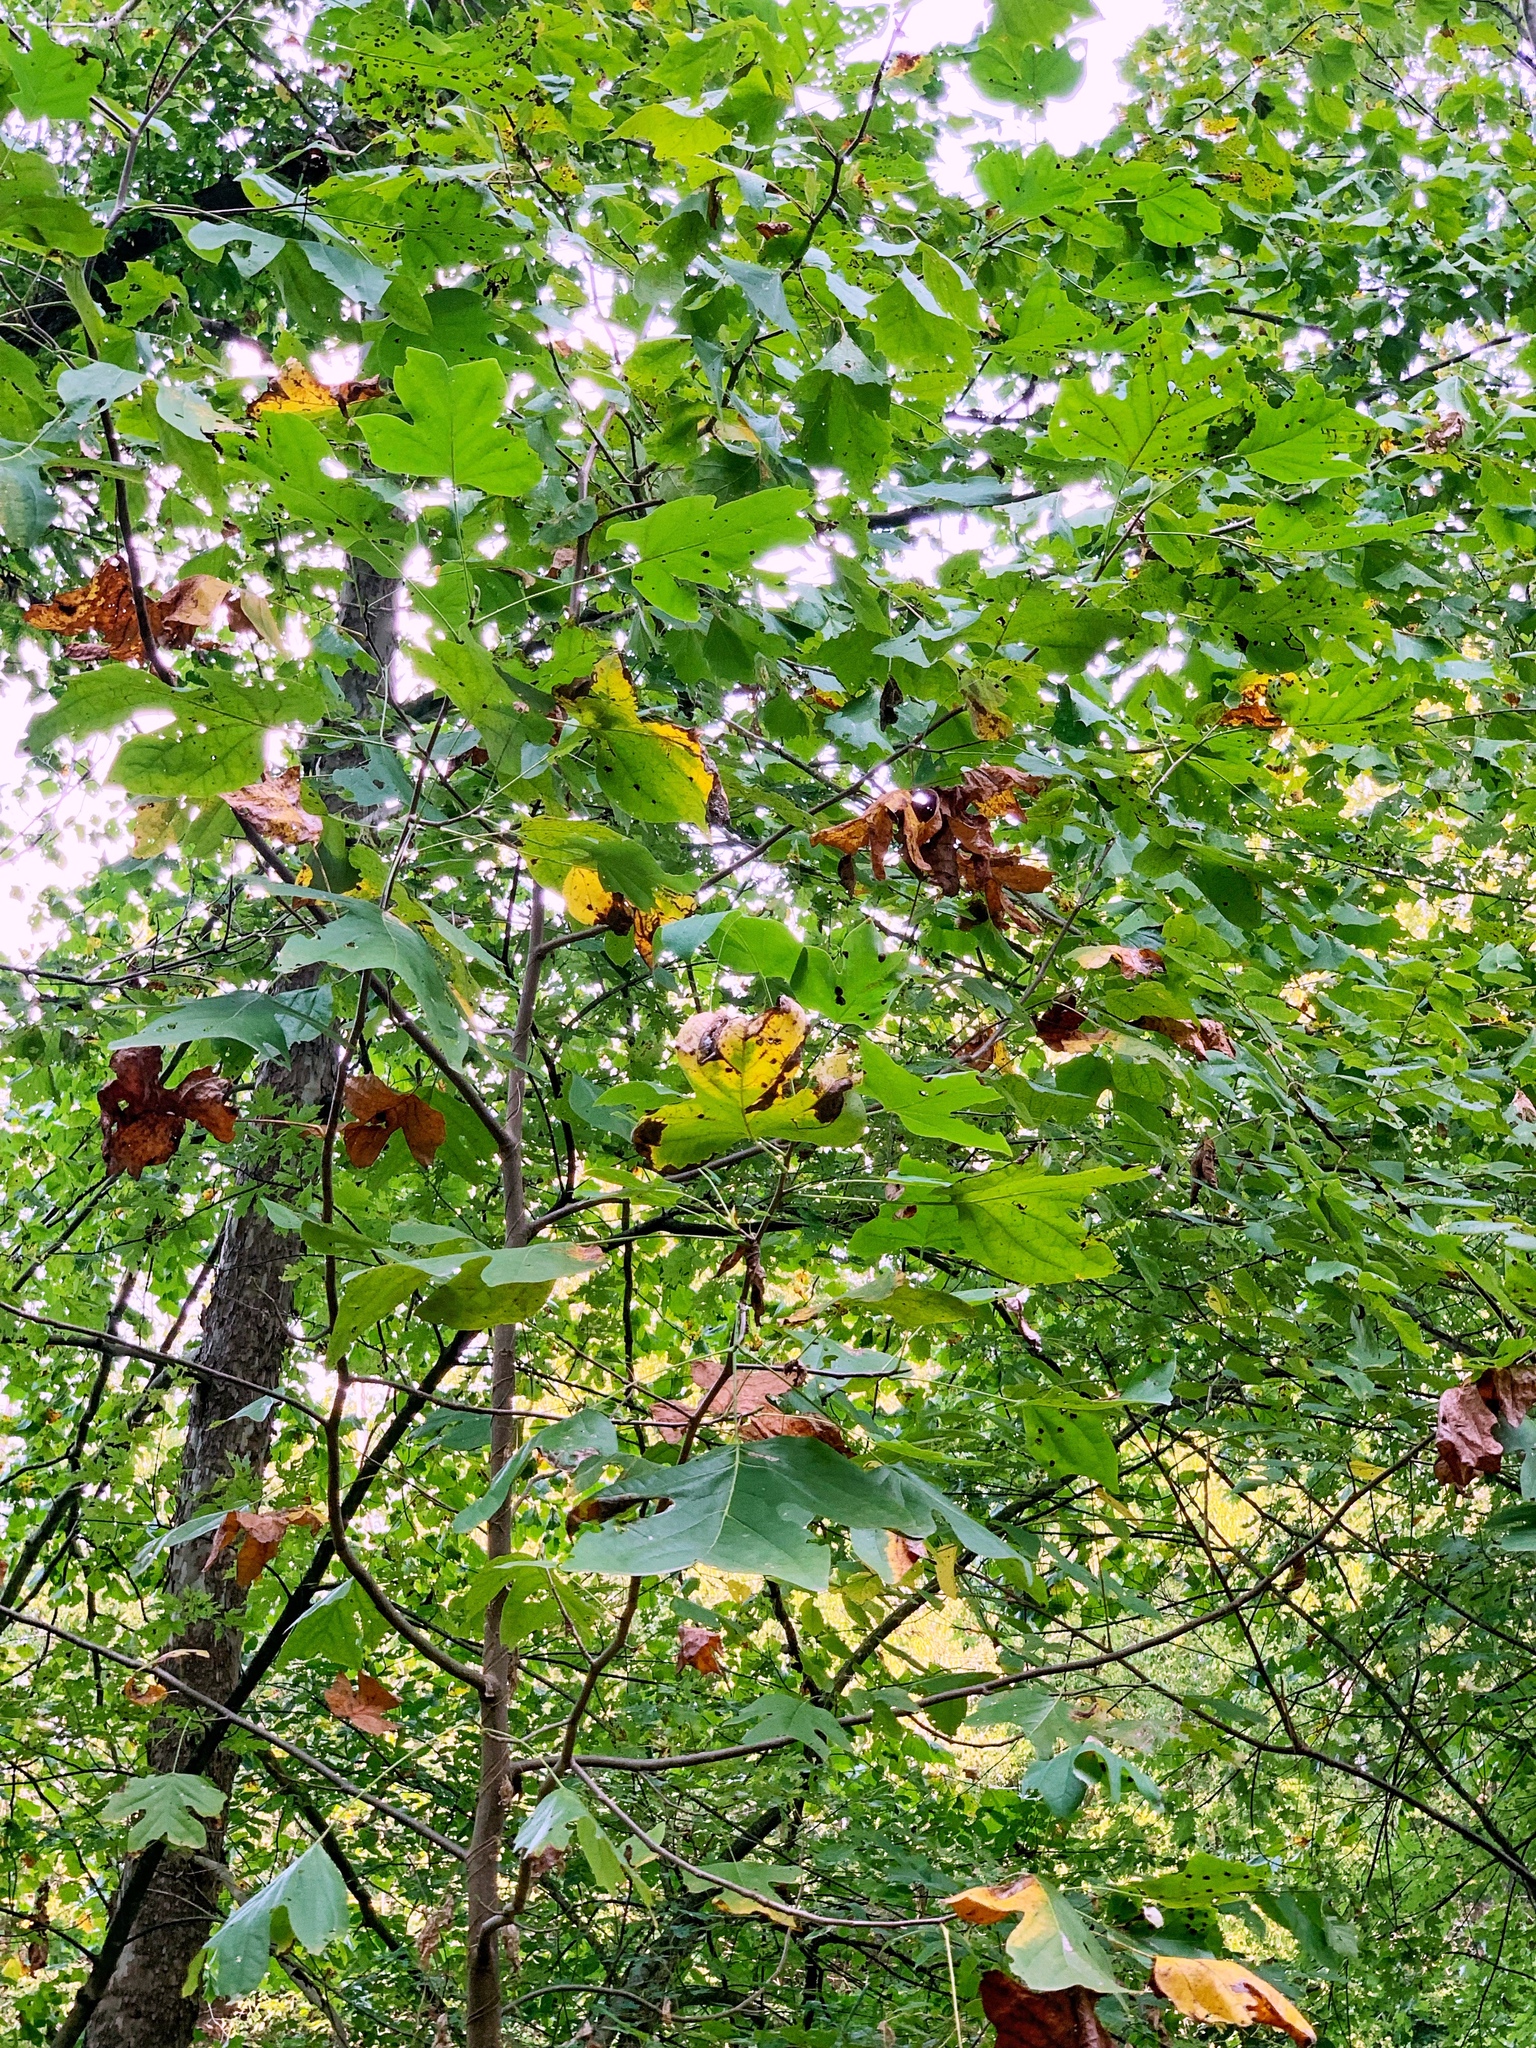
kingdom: Plantae
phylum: Tracheophyta
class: Magnoliopsida
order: Magnoliales
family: Magnoliaceae
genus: Liriodendron
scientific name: Liriodendron tulipifera
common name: Tulip tree
